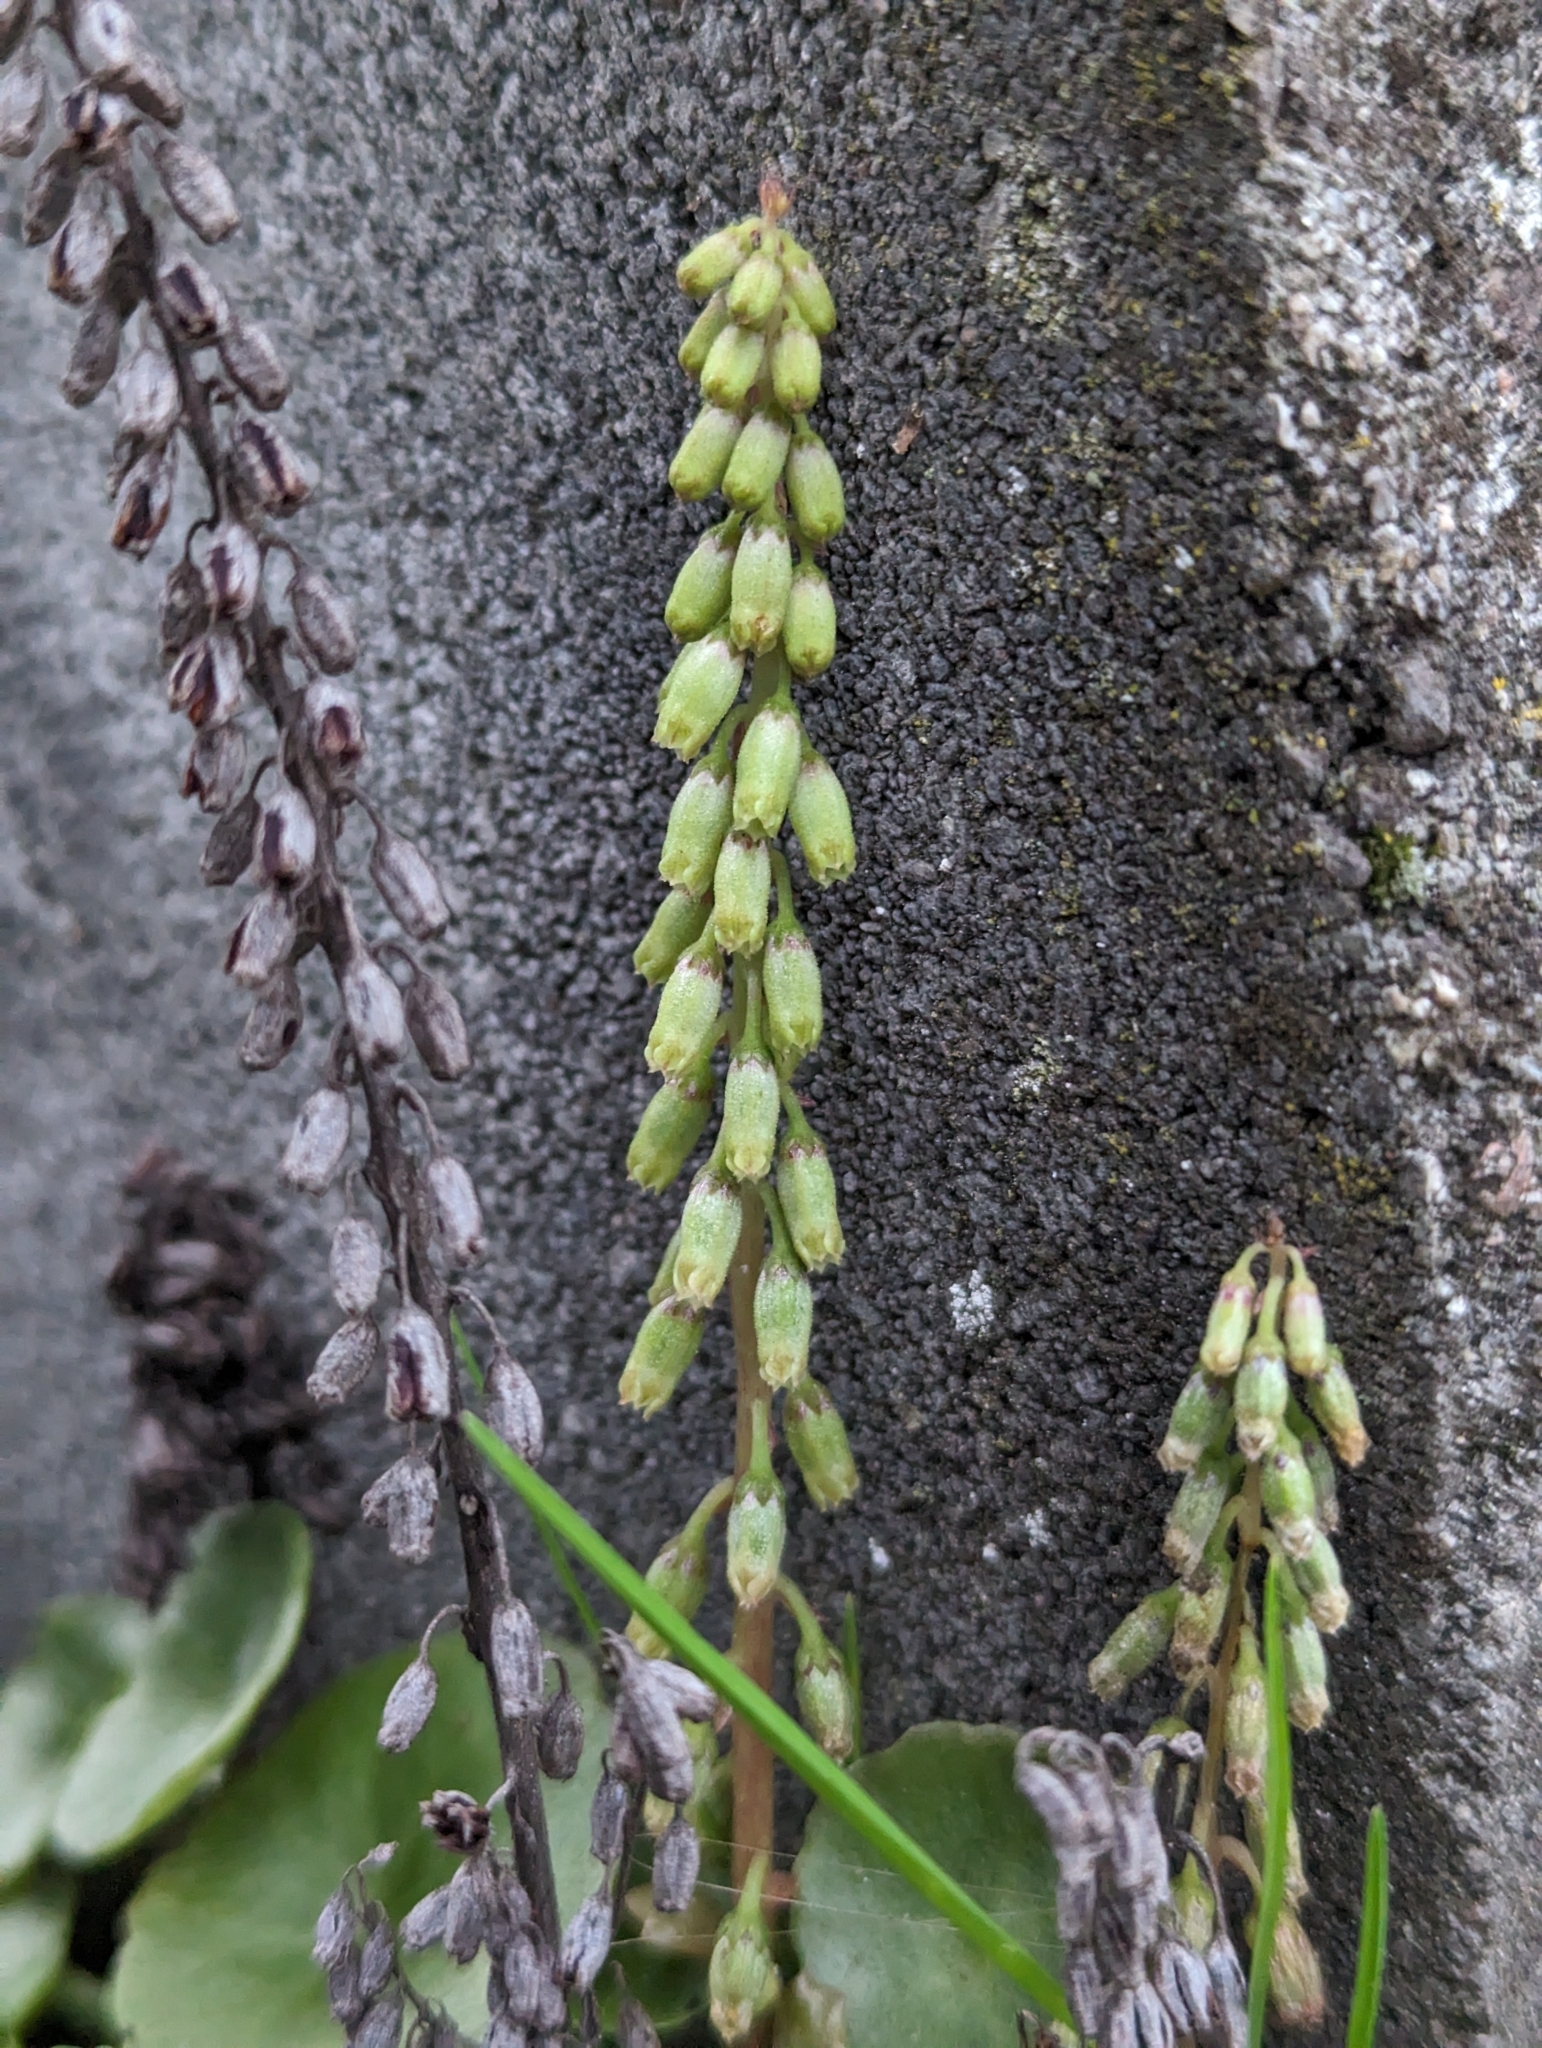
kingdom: Plantae
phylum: Tracheophyta
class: Magnoliopsida
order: Saxifragales
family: Crassulaceae
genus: Umbilicus
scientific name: Umbilicus rupestris
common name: Navelwort
